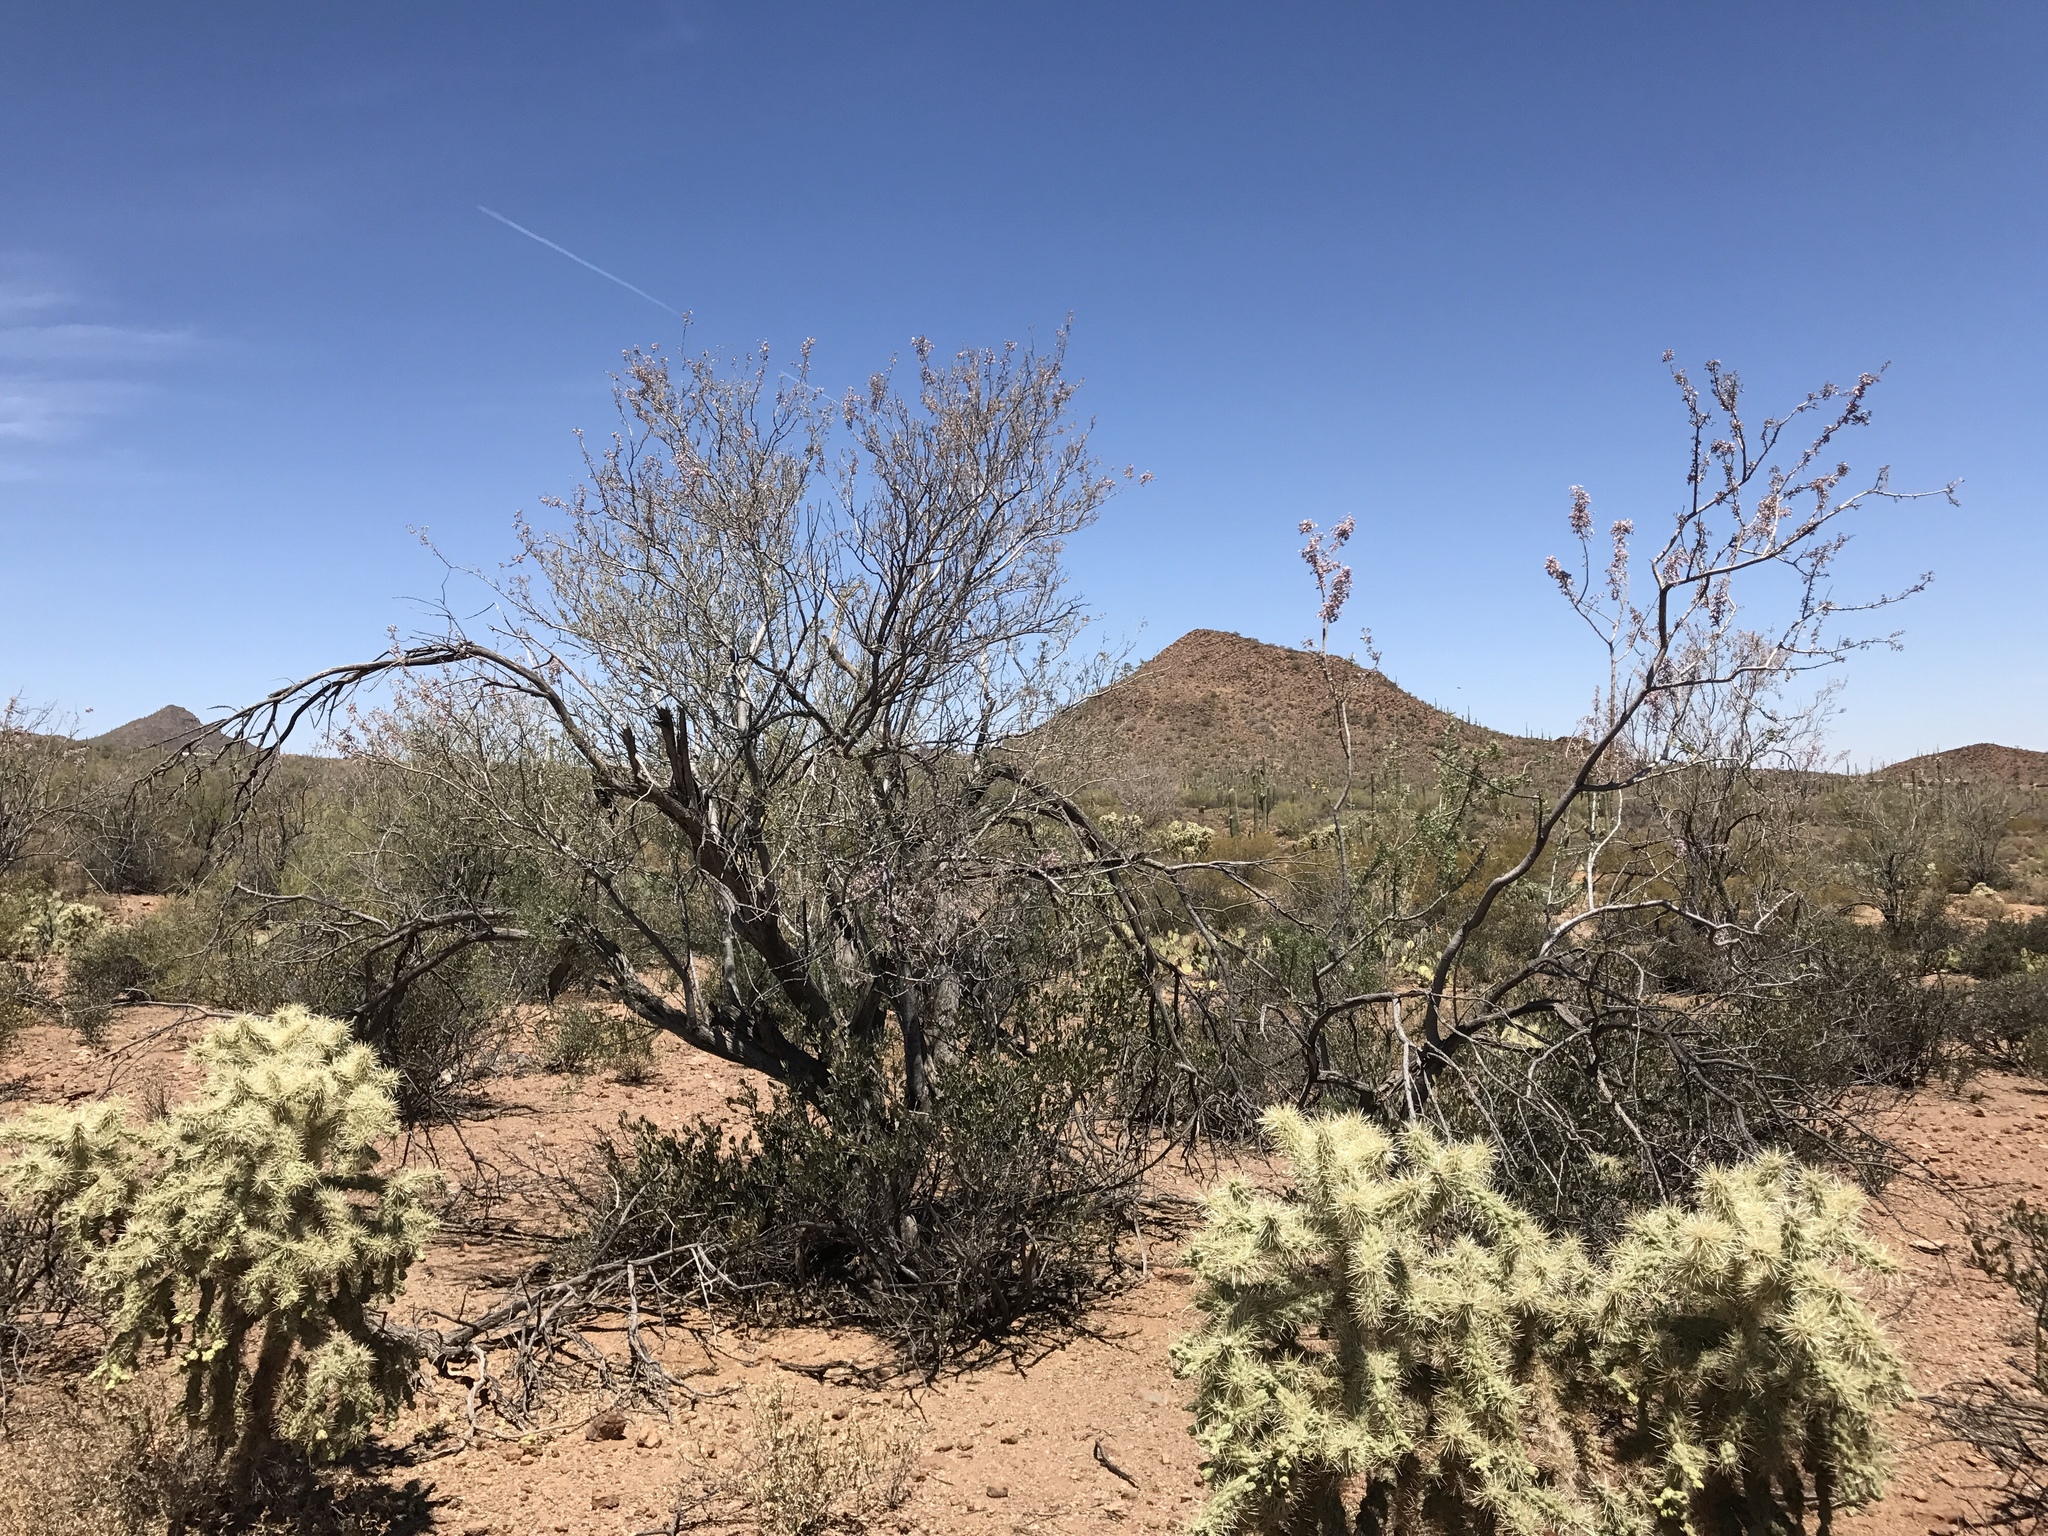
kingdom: Plantae
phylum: Tracheophyta
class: Magnoliopsida
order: Fabales
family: Fabaceae
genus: Olneya
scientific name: Olneya tesota
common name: Desert ironwood
